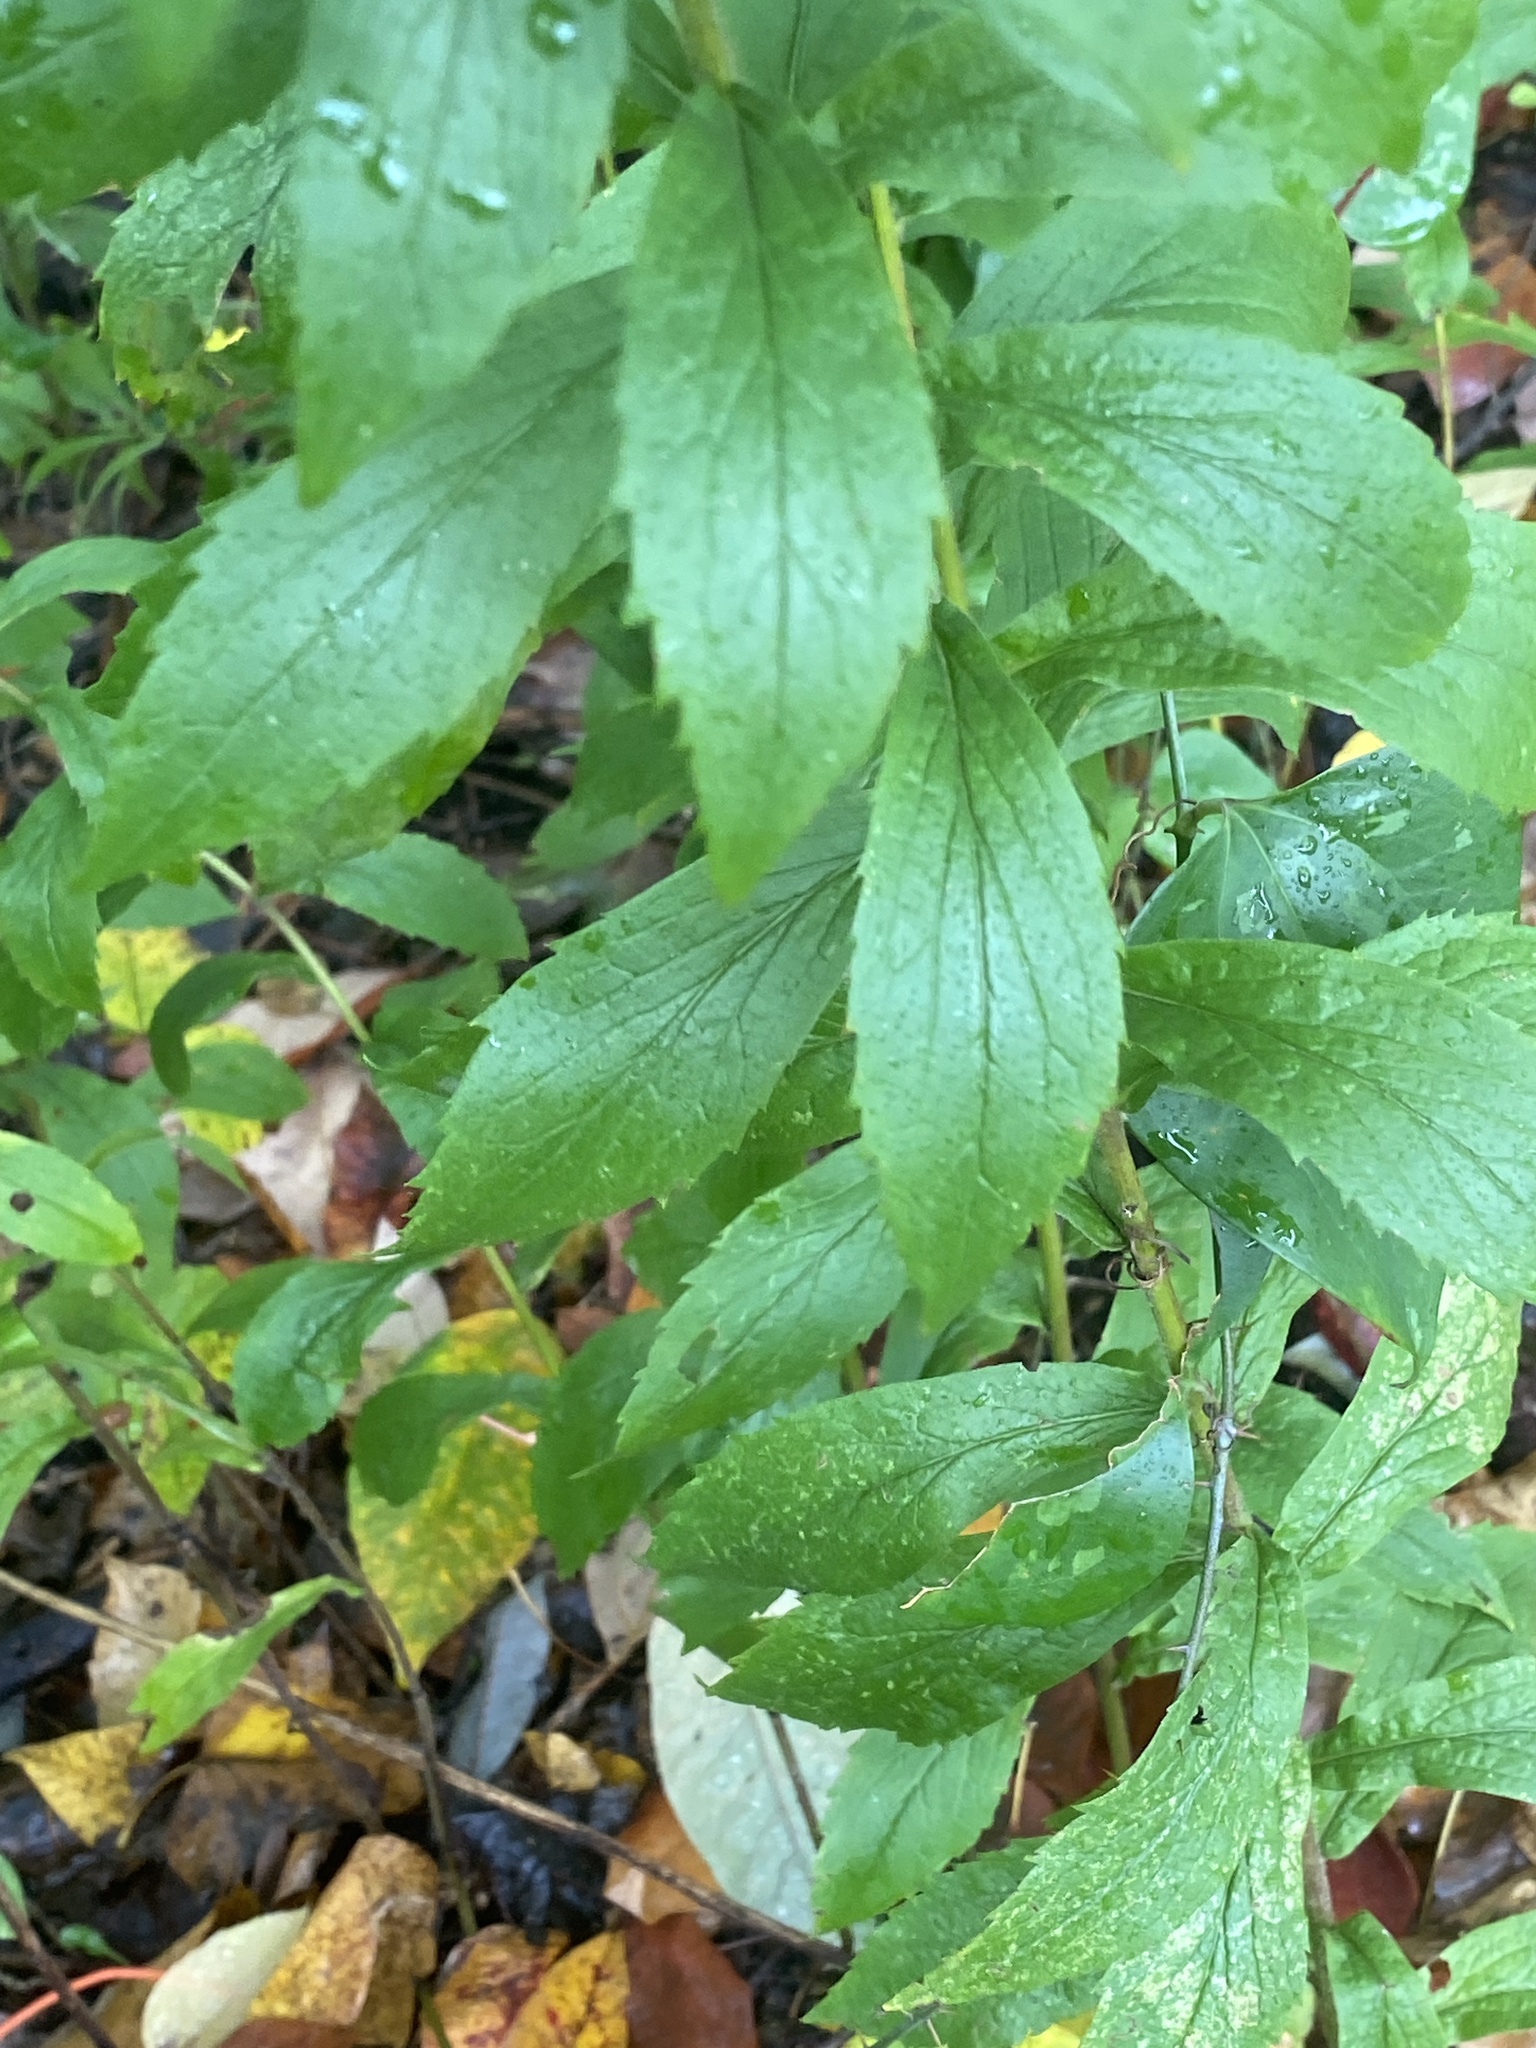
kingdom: Plantae
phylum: Tracheophyta
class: Magnoliopsida
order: Asterales
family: Asteraceae
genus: Solidago
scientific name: Solidago rugosa
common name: Rough-stemmed goldenrod
